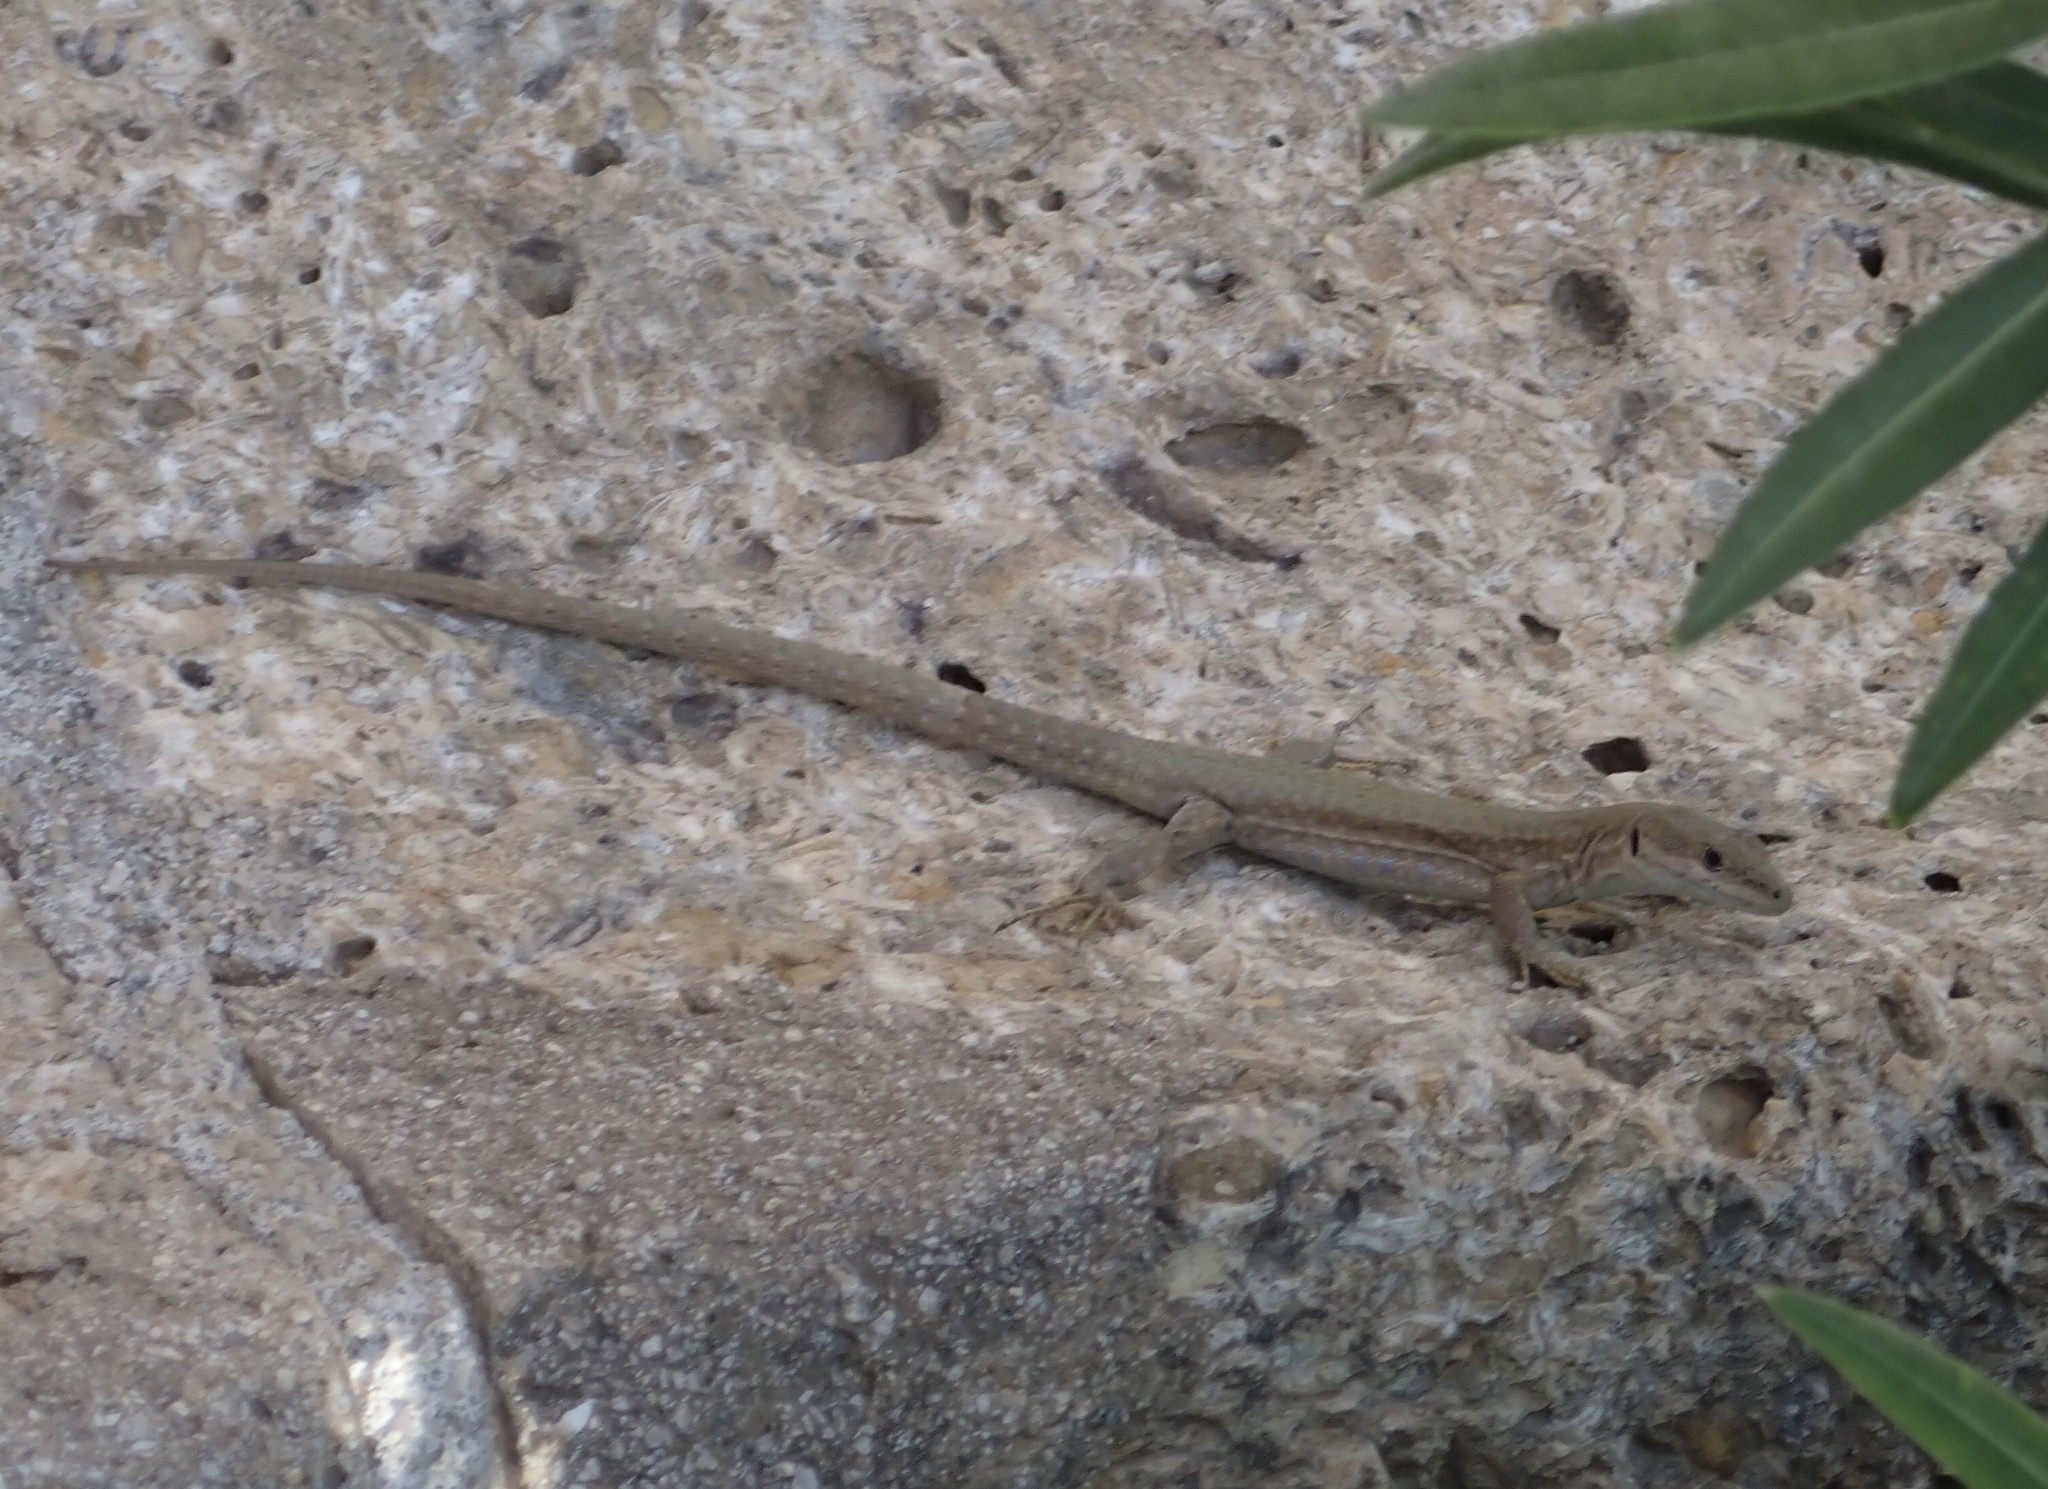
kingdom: Animalia
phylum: Chordata
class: Squamata
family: Lacertidae
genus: Podarcis
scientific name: Podarcis liolepis
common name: Catalonian wall lizard
